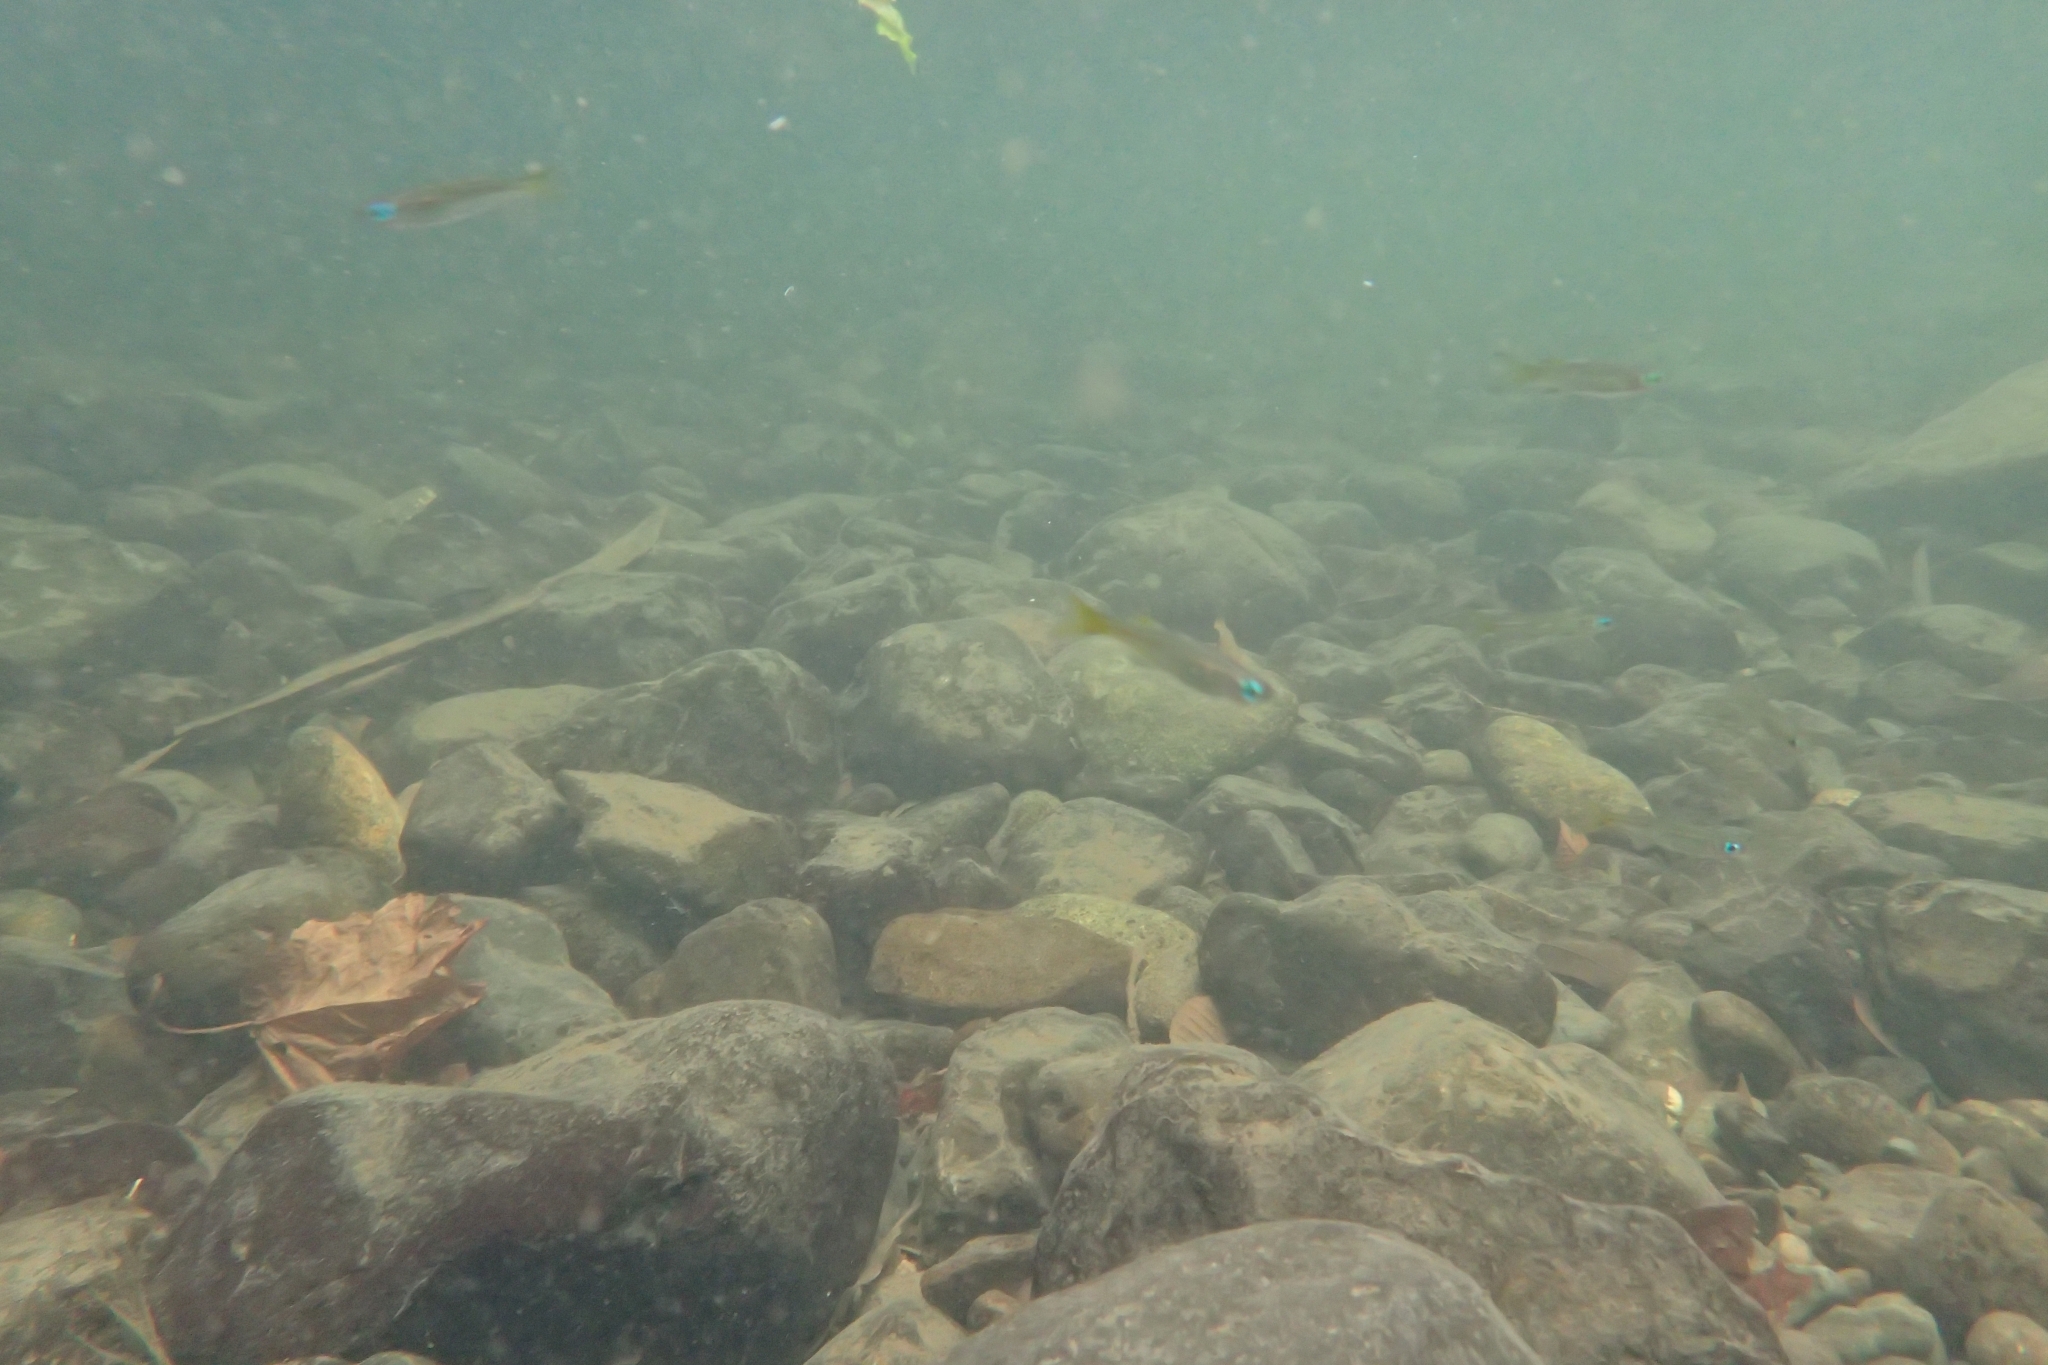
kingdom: Animalia
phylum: Chordata
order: Atheriniformes
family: Pseudomugilidae
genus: Pseudomugil
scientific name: Pseudomugil signifer
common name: Blue eye
